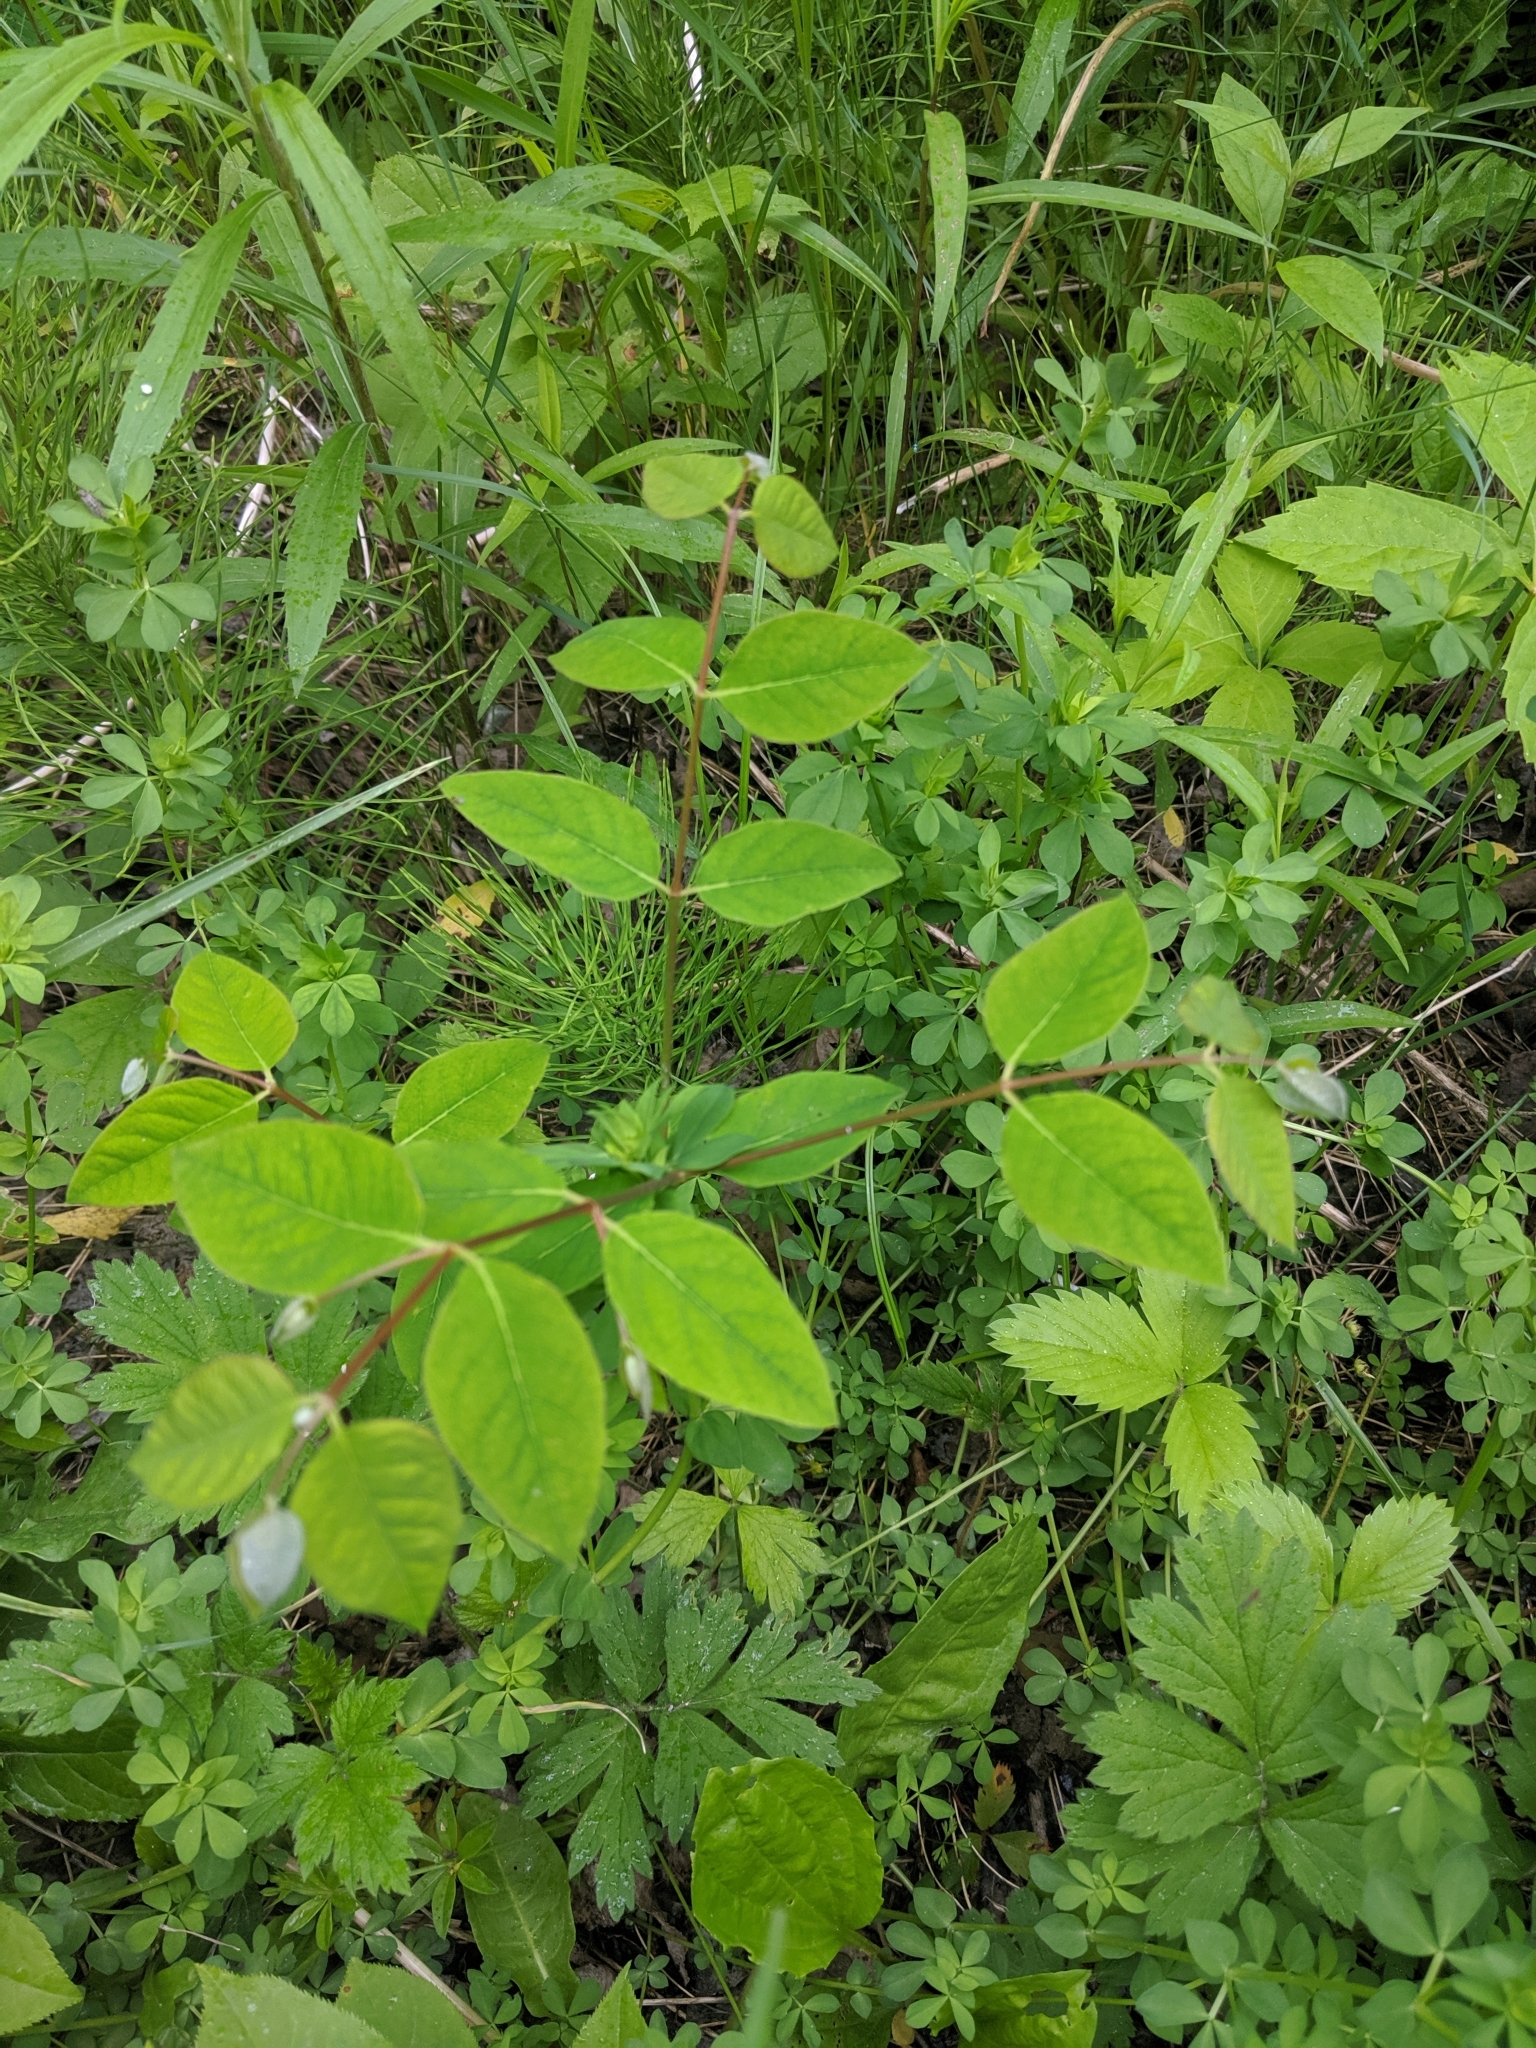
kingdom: Plantae
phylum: Tracheophyta
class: Magnoliopsida
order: Gentianales
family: Apocynaceae
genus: Apocynum
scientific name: Apocynum androsaemifolium
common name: Spreading dogbane
